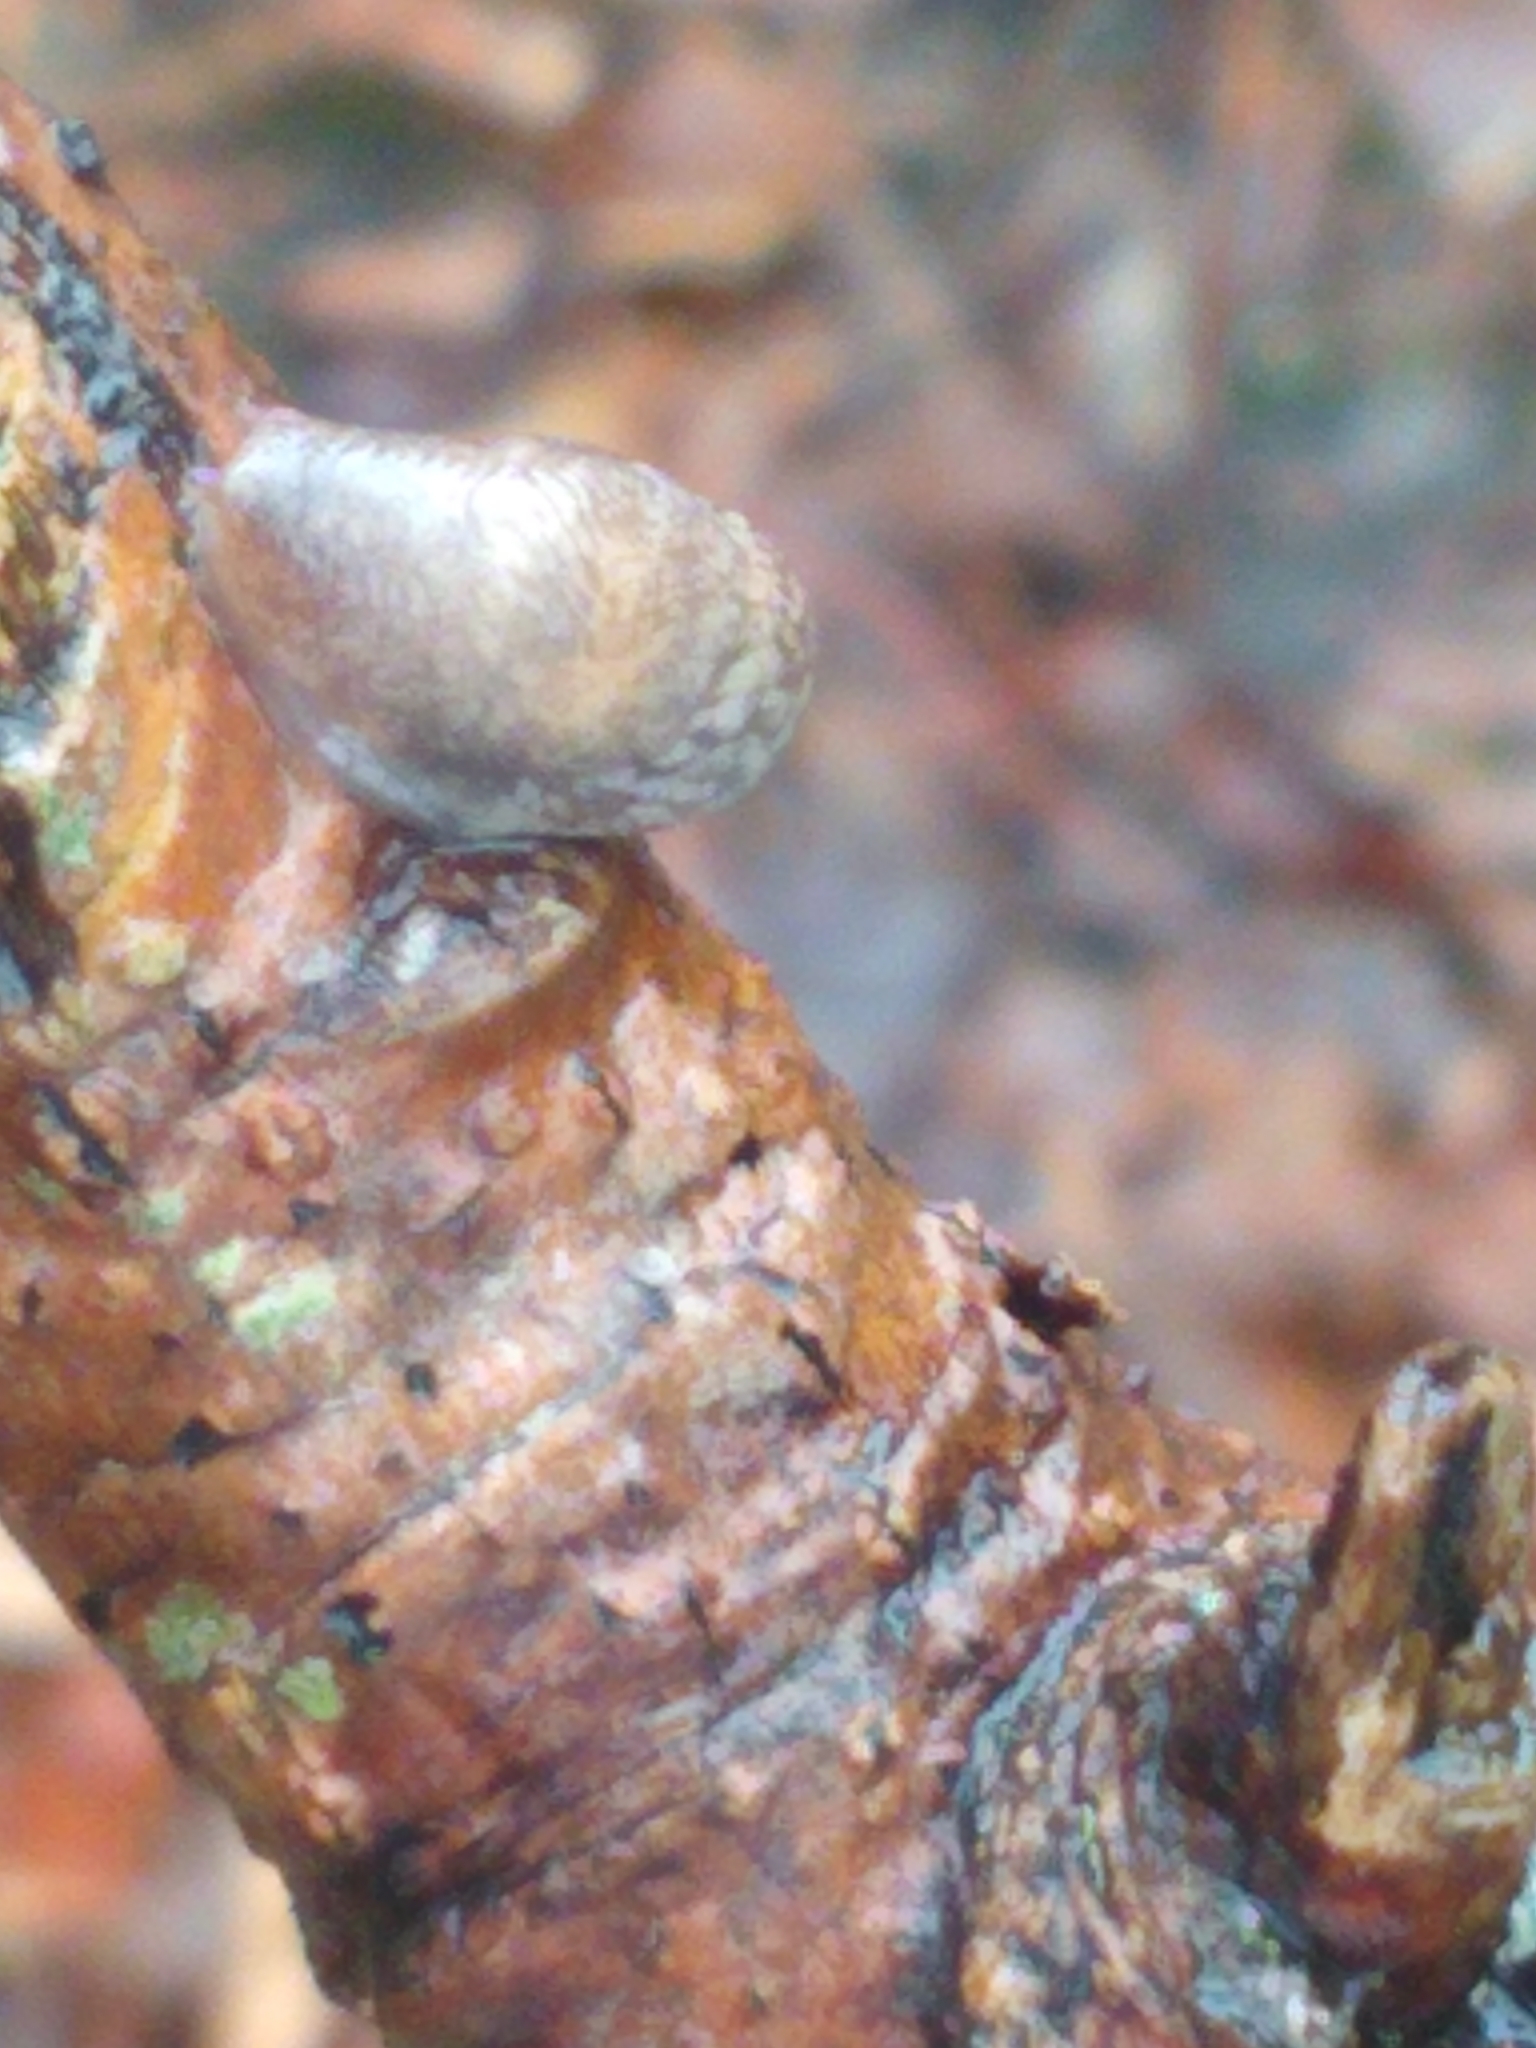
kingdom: Animalia
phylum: Mollusca
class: Gastropoda
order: Stylommatophora
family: Agriolimacidae
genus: Deroceras
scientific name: Deroceras reticulatum
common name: Gray field slug
